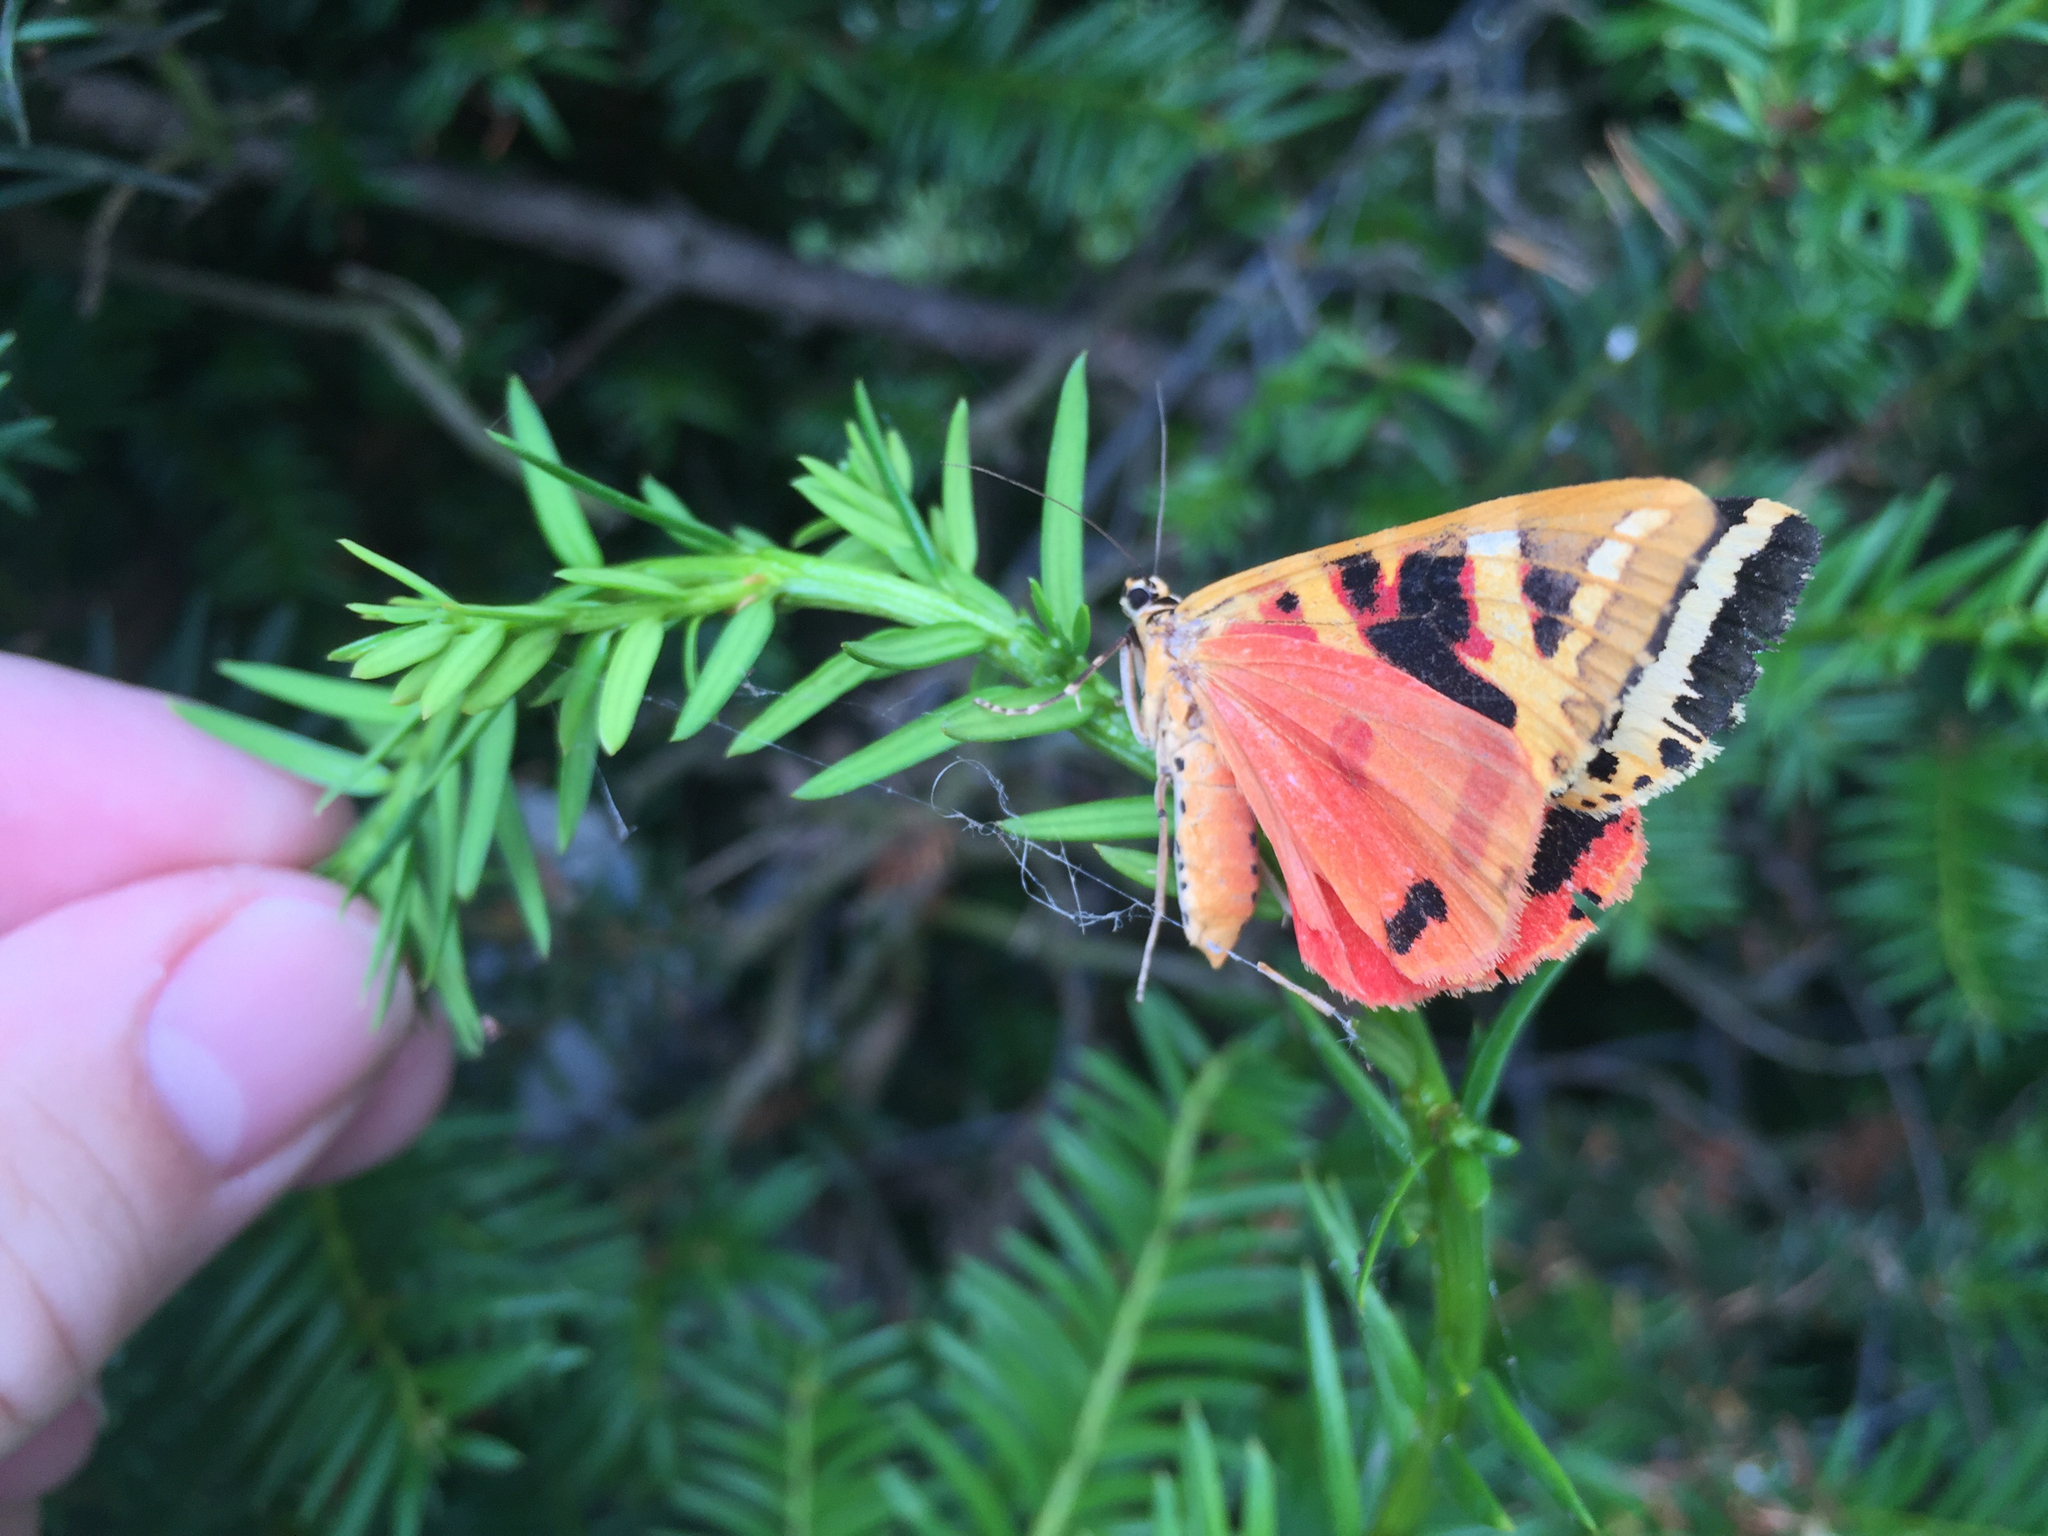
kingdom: Animalia
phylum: Arthropoda
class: Insecta
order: Lepidoptera
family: Erebidae
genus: Euplagia
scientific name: Euplagia quadripunctaria
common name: Jersey tiger
